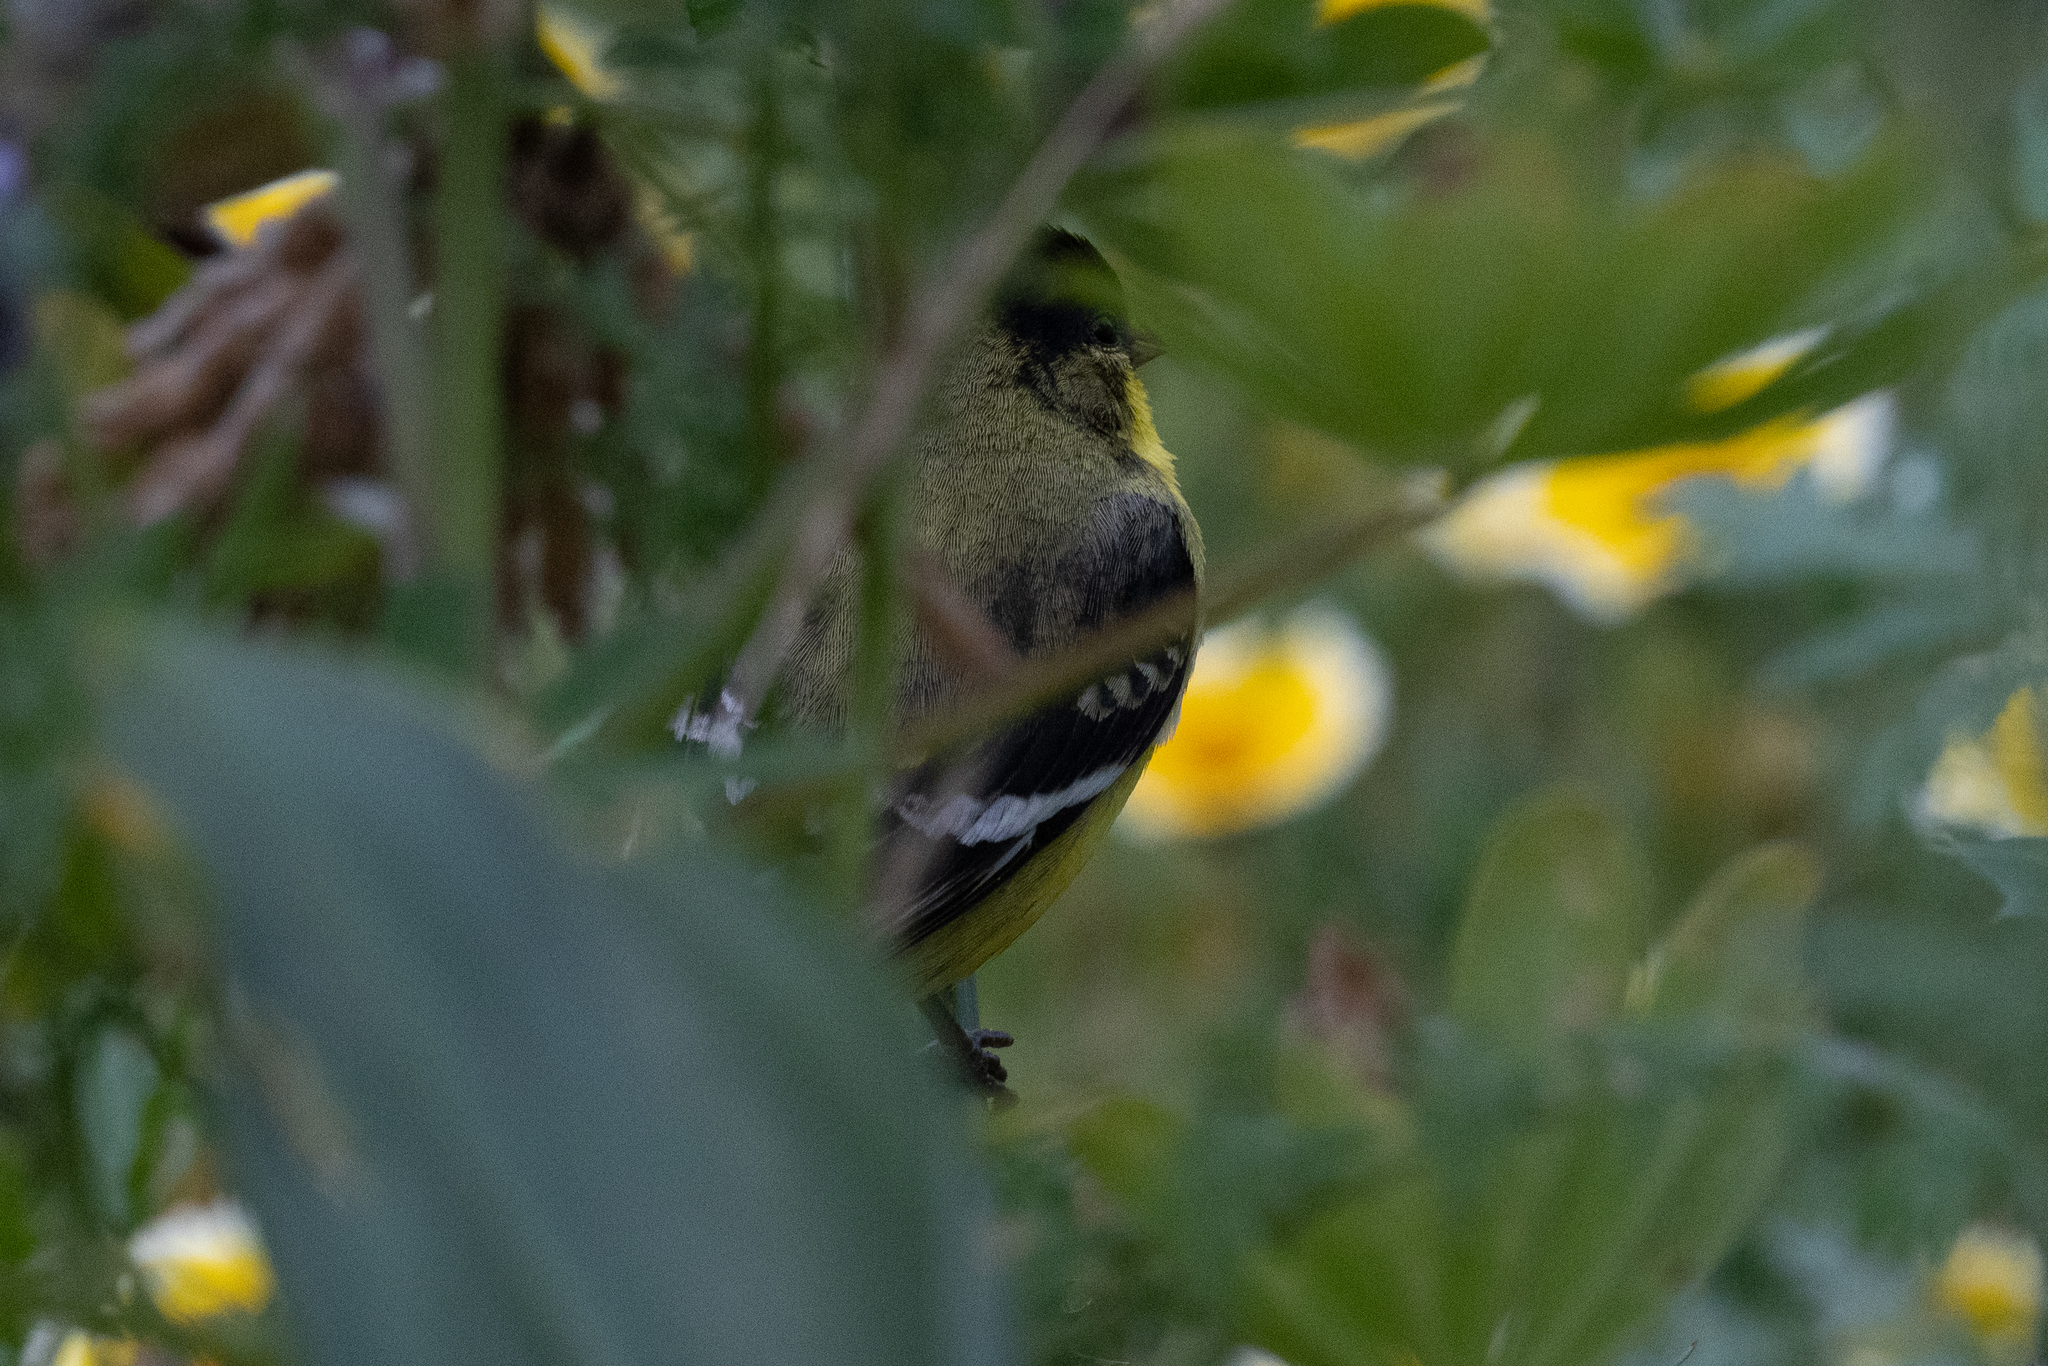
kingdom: Animalia
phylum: Chordata
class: Aves
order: Passeriformes
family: Fringillidae
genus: Spinus
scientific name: Spinus psaltria
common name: Lesser goldfinch
